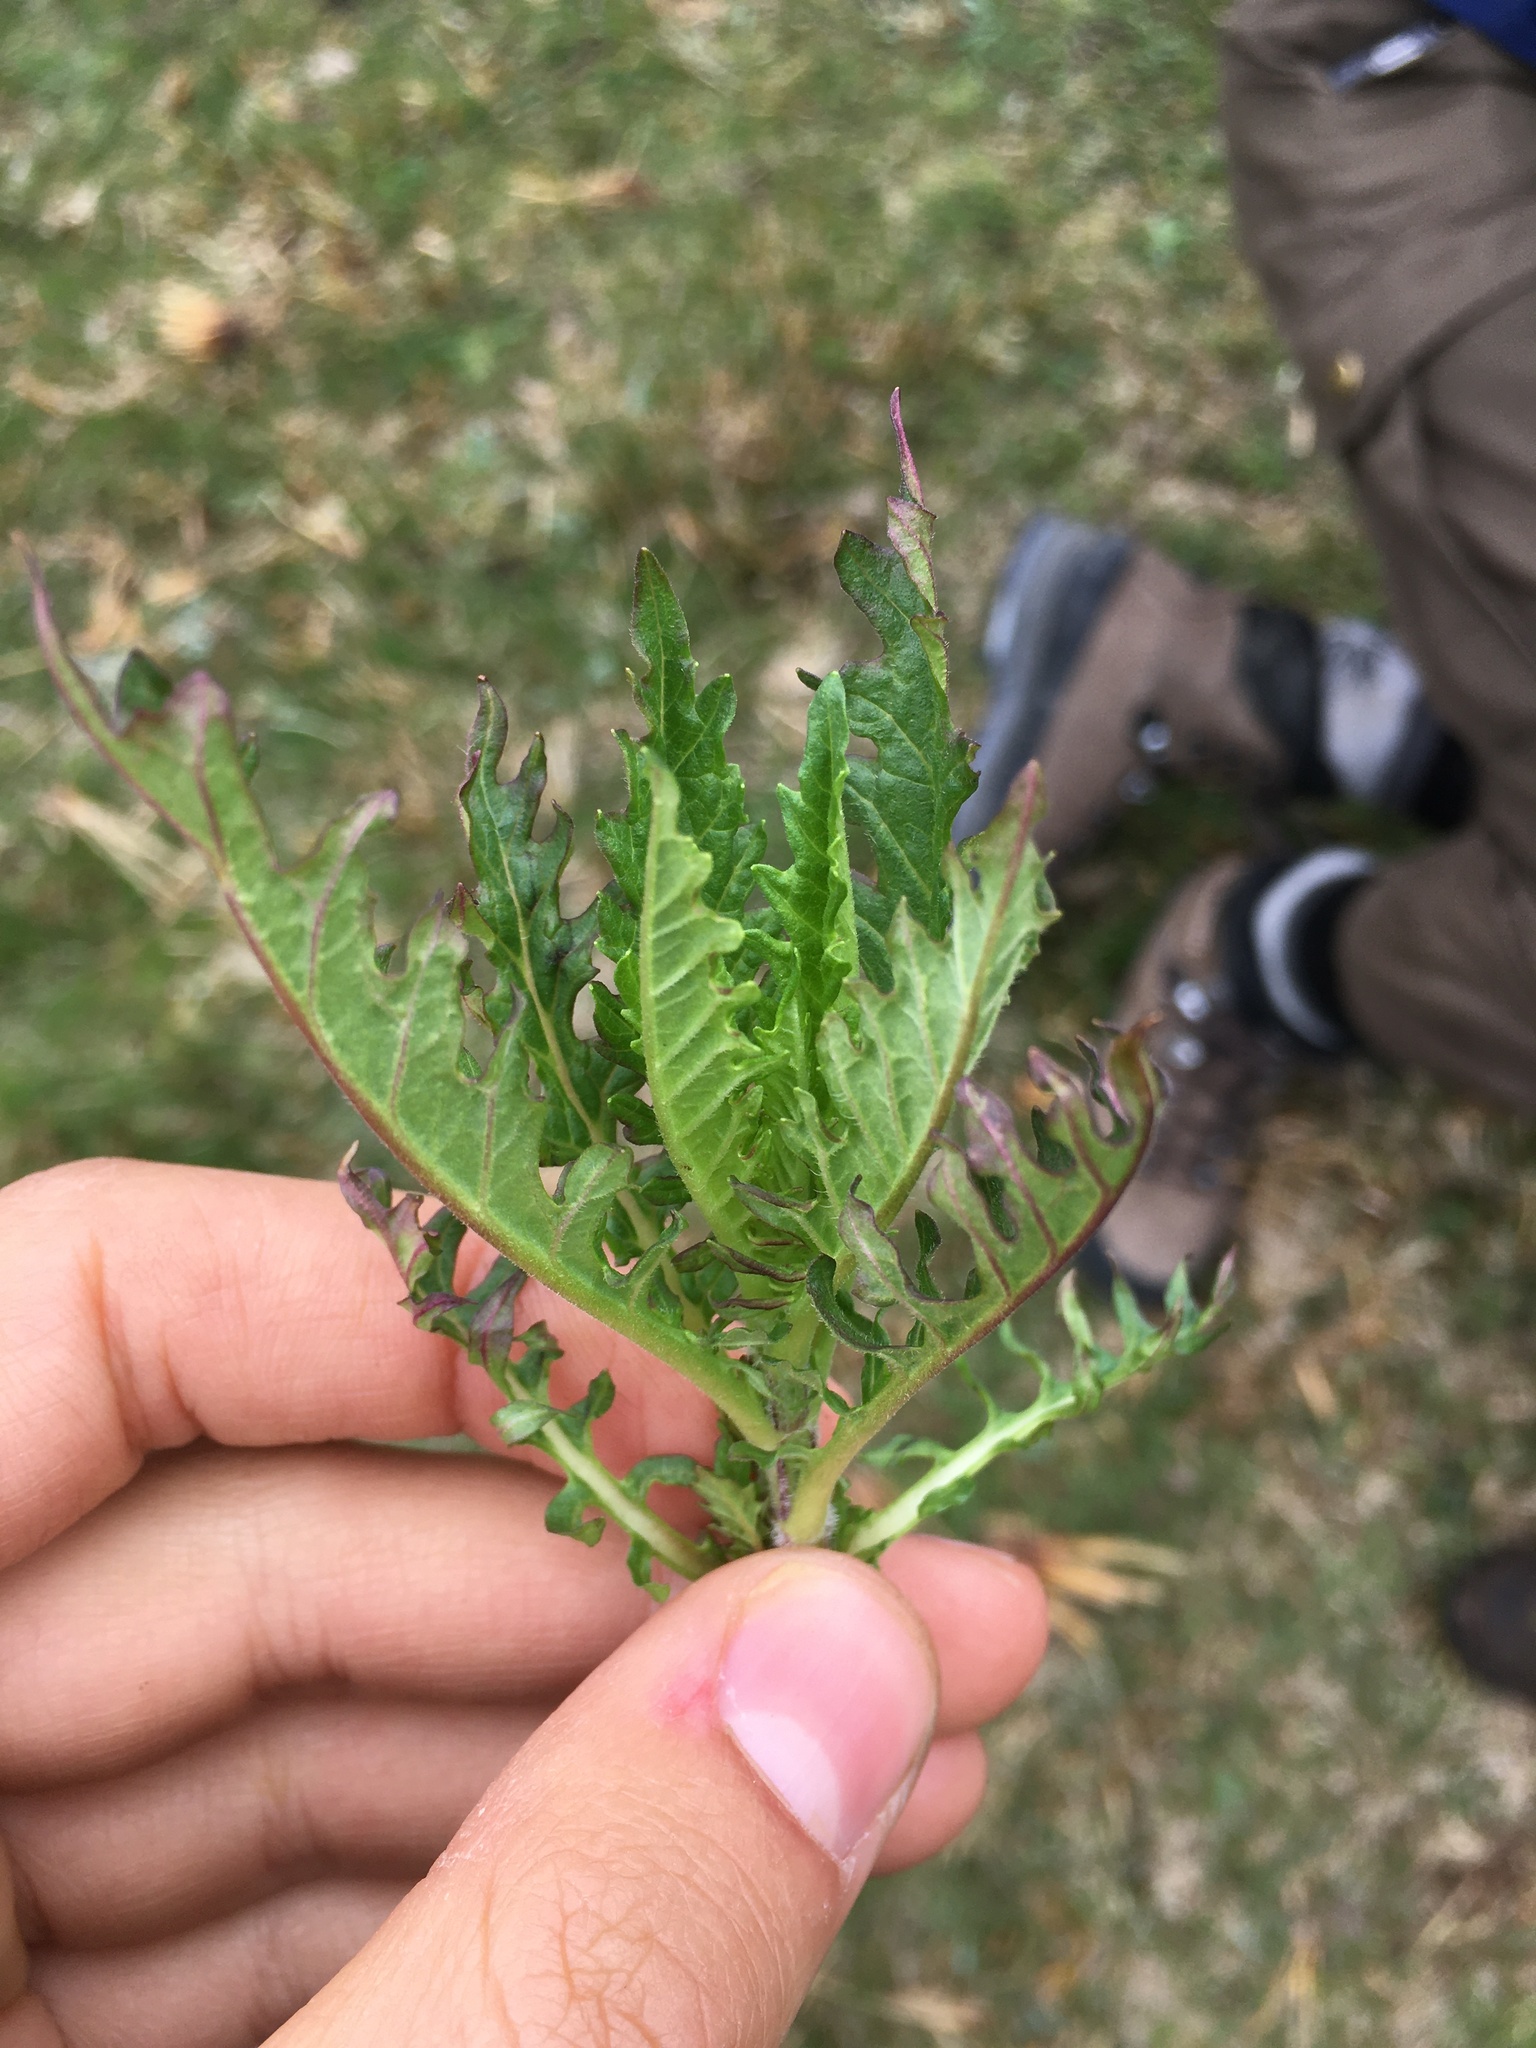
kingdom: Plantae
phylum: Tracheophyta
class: Magnoliopsida
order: Lamiales
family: Lamiaceae
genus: Lycopus
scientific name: Lycopus europaeus
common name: European bugleweed
